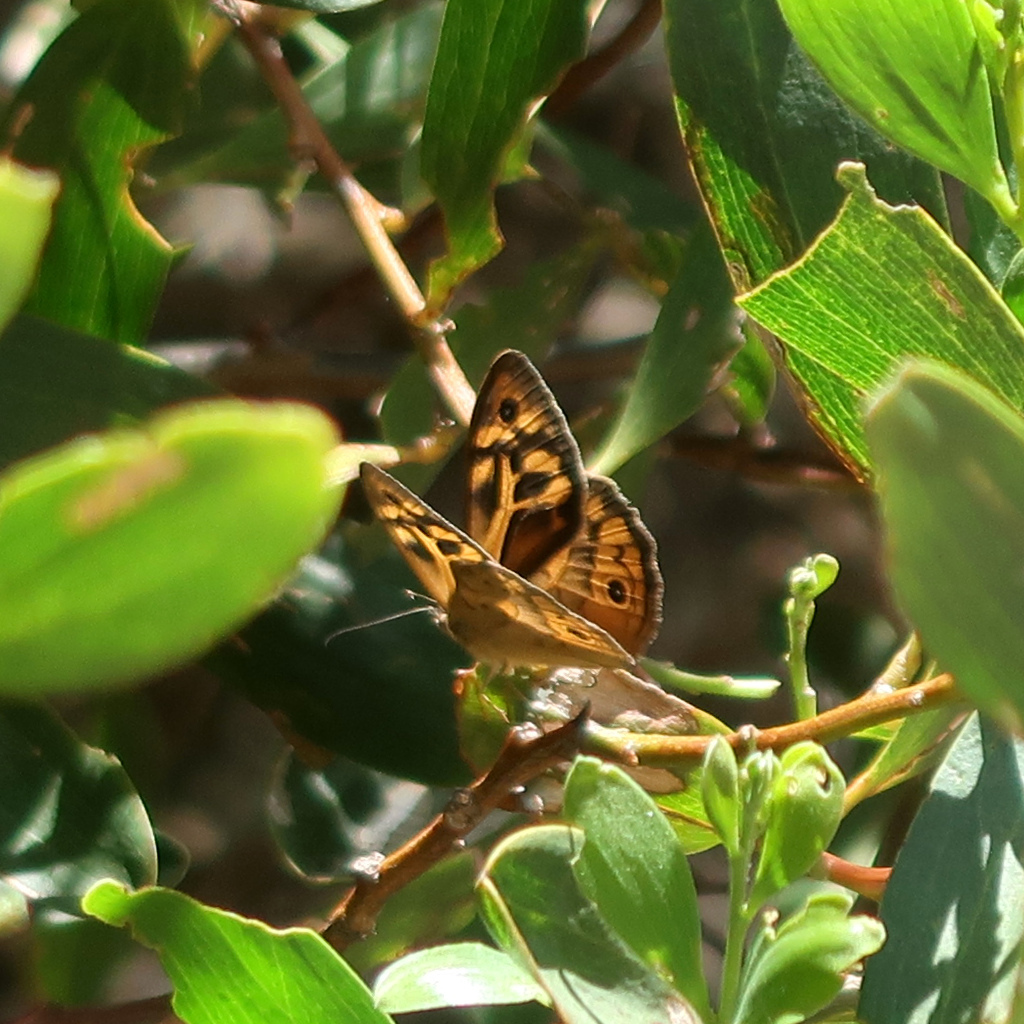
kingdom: Animalia
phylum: Arthropoda
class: Insecta
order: Lepidoptera
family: Nymphalidae
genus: Heteronympha
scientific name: Heteronympha merope
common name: Common brown
